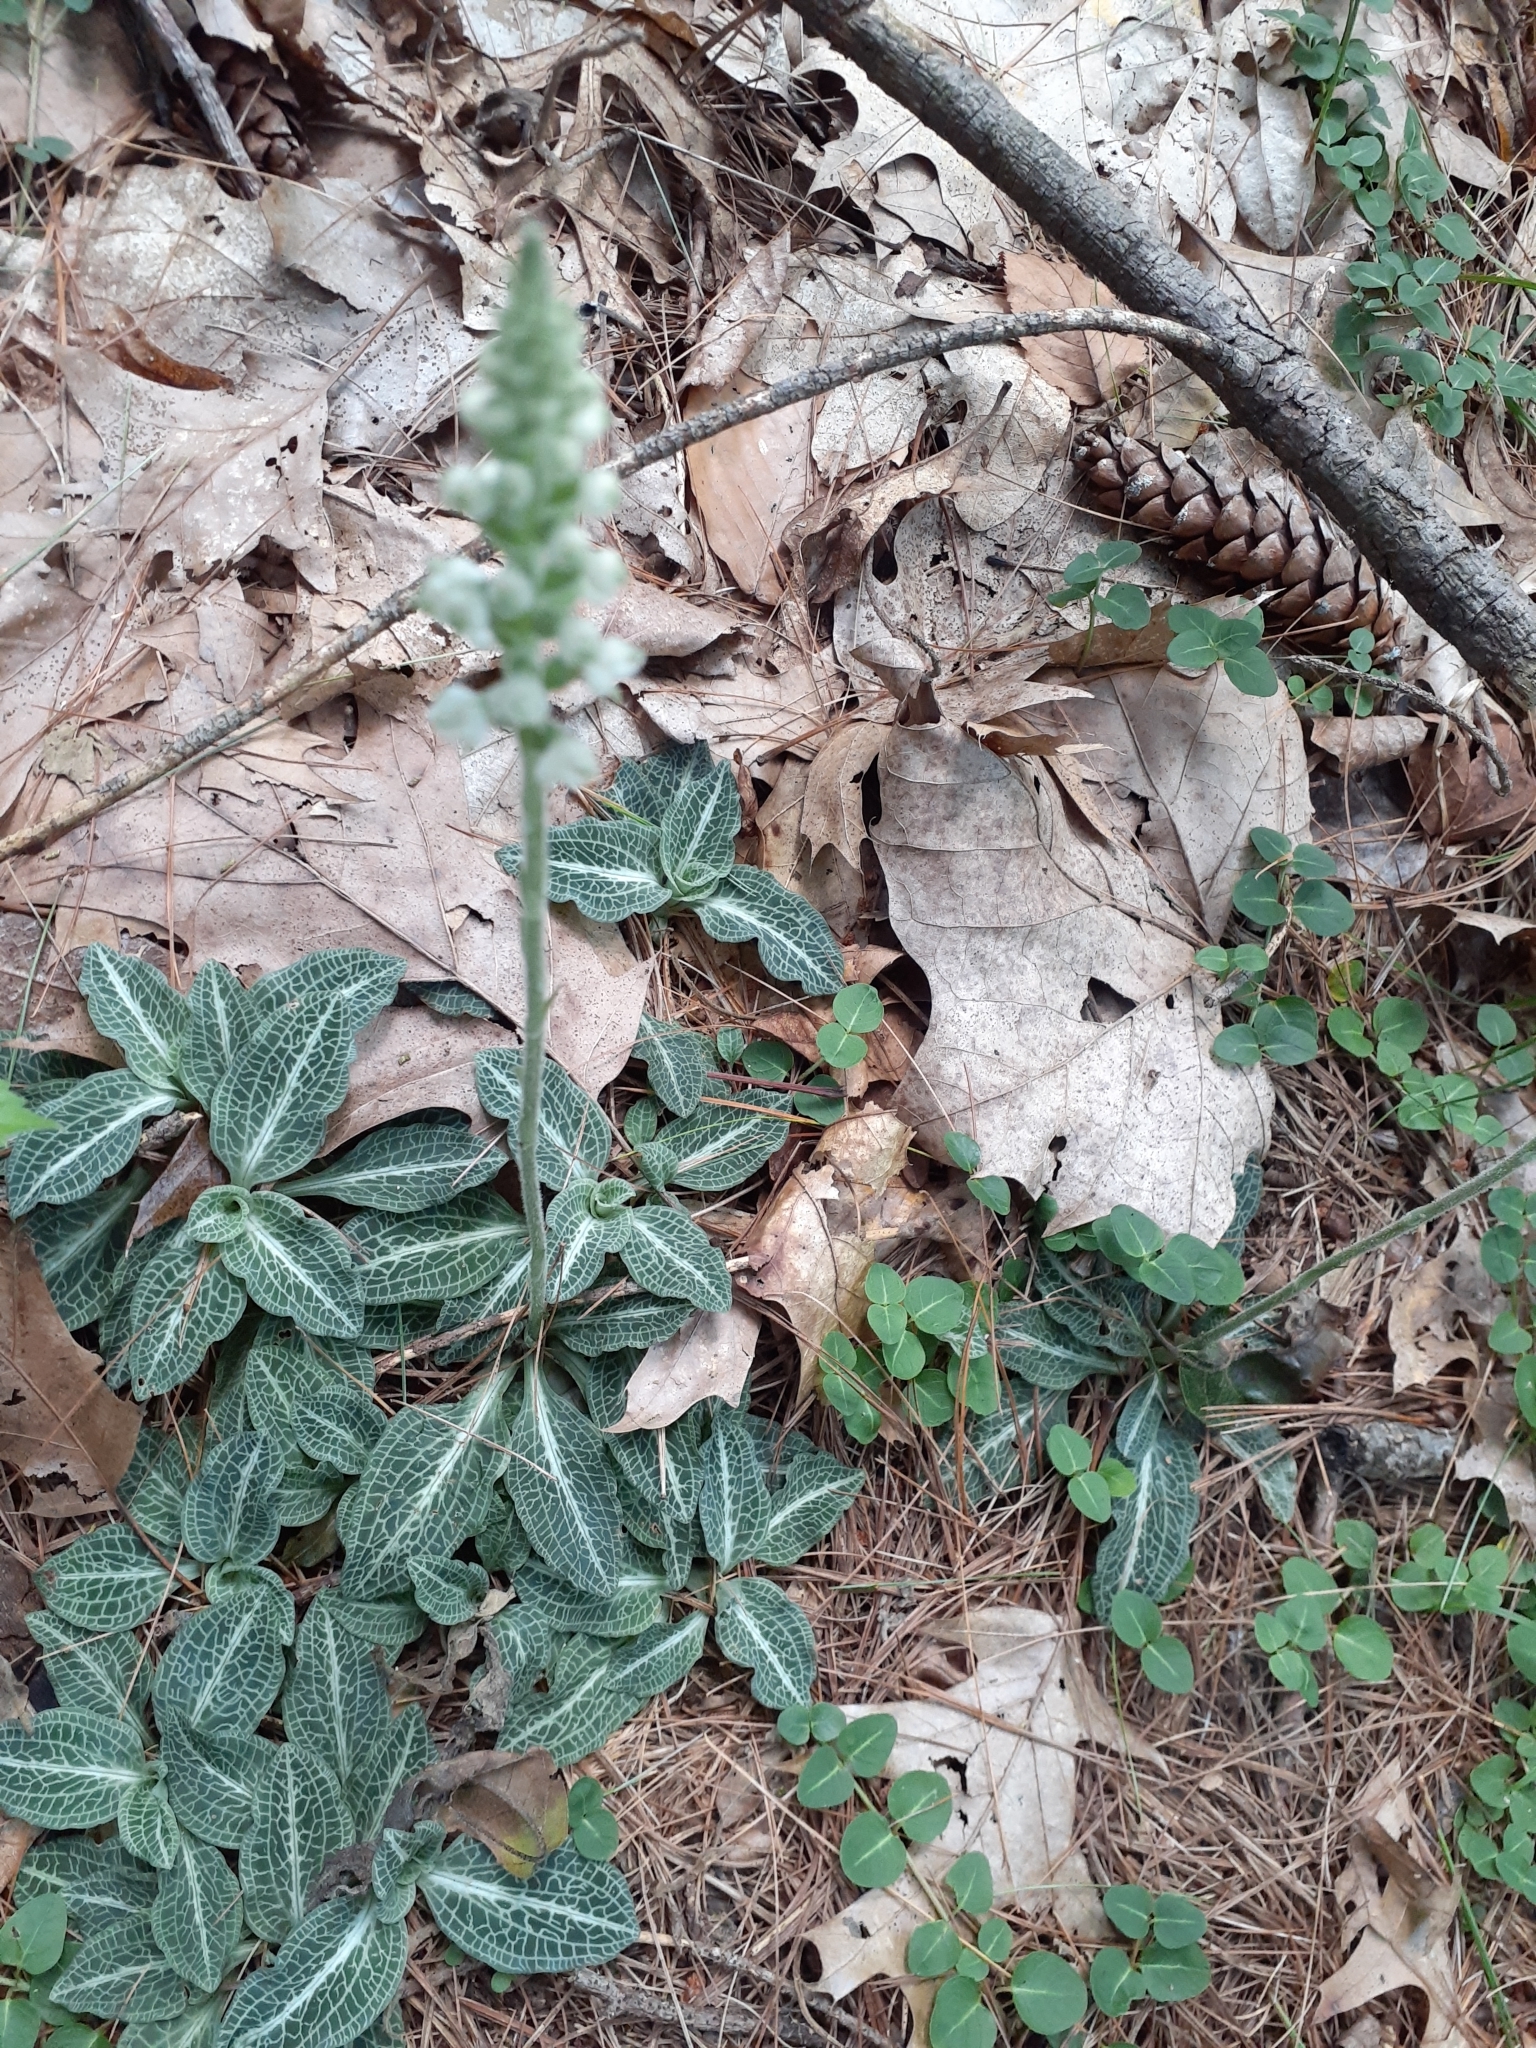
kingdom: Plantae
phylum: Tracheophyta
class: Liliopsida
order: Asparagales
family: Orchidaceae
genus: Goodyera
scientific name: Goodyera pubescens
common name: Downy rattlesnake-plantain
